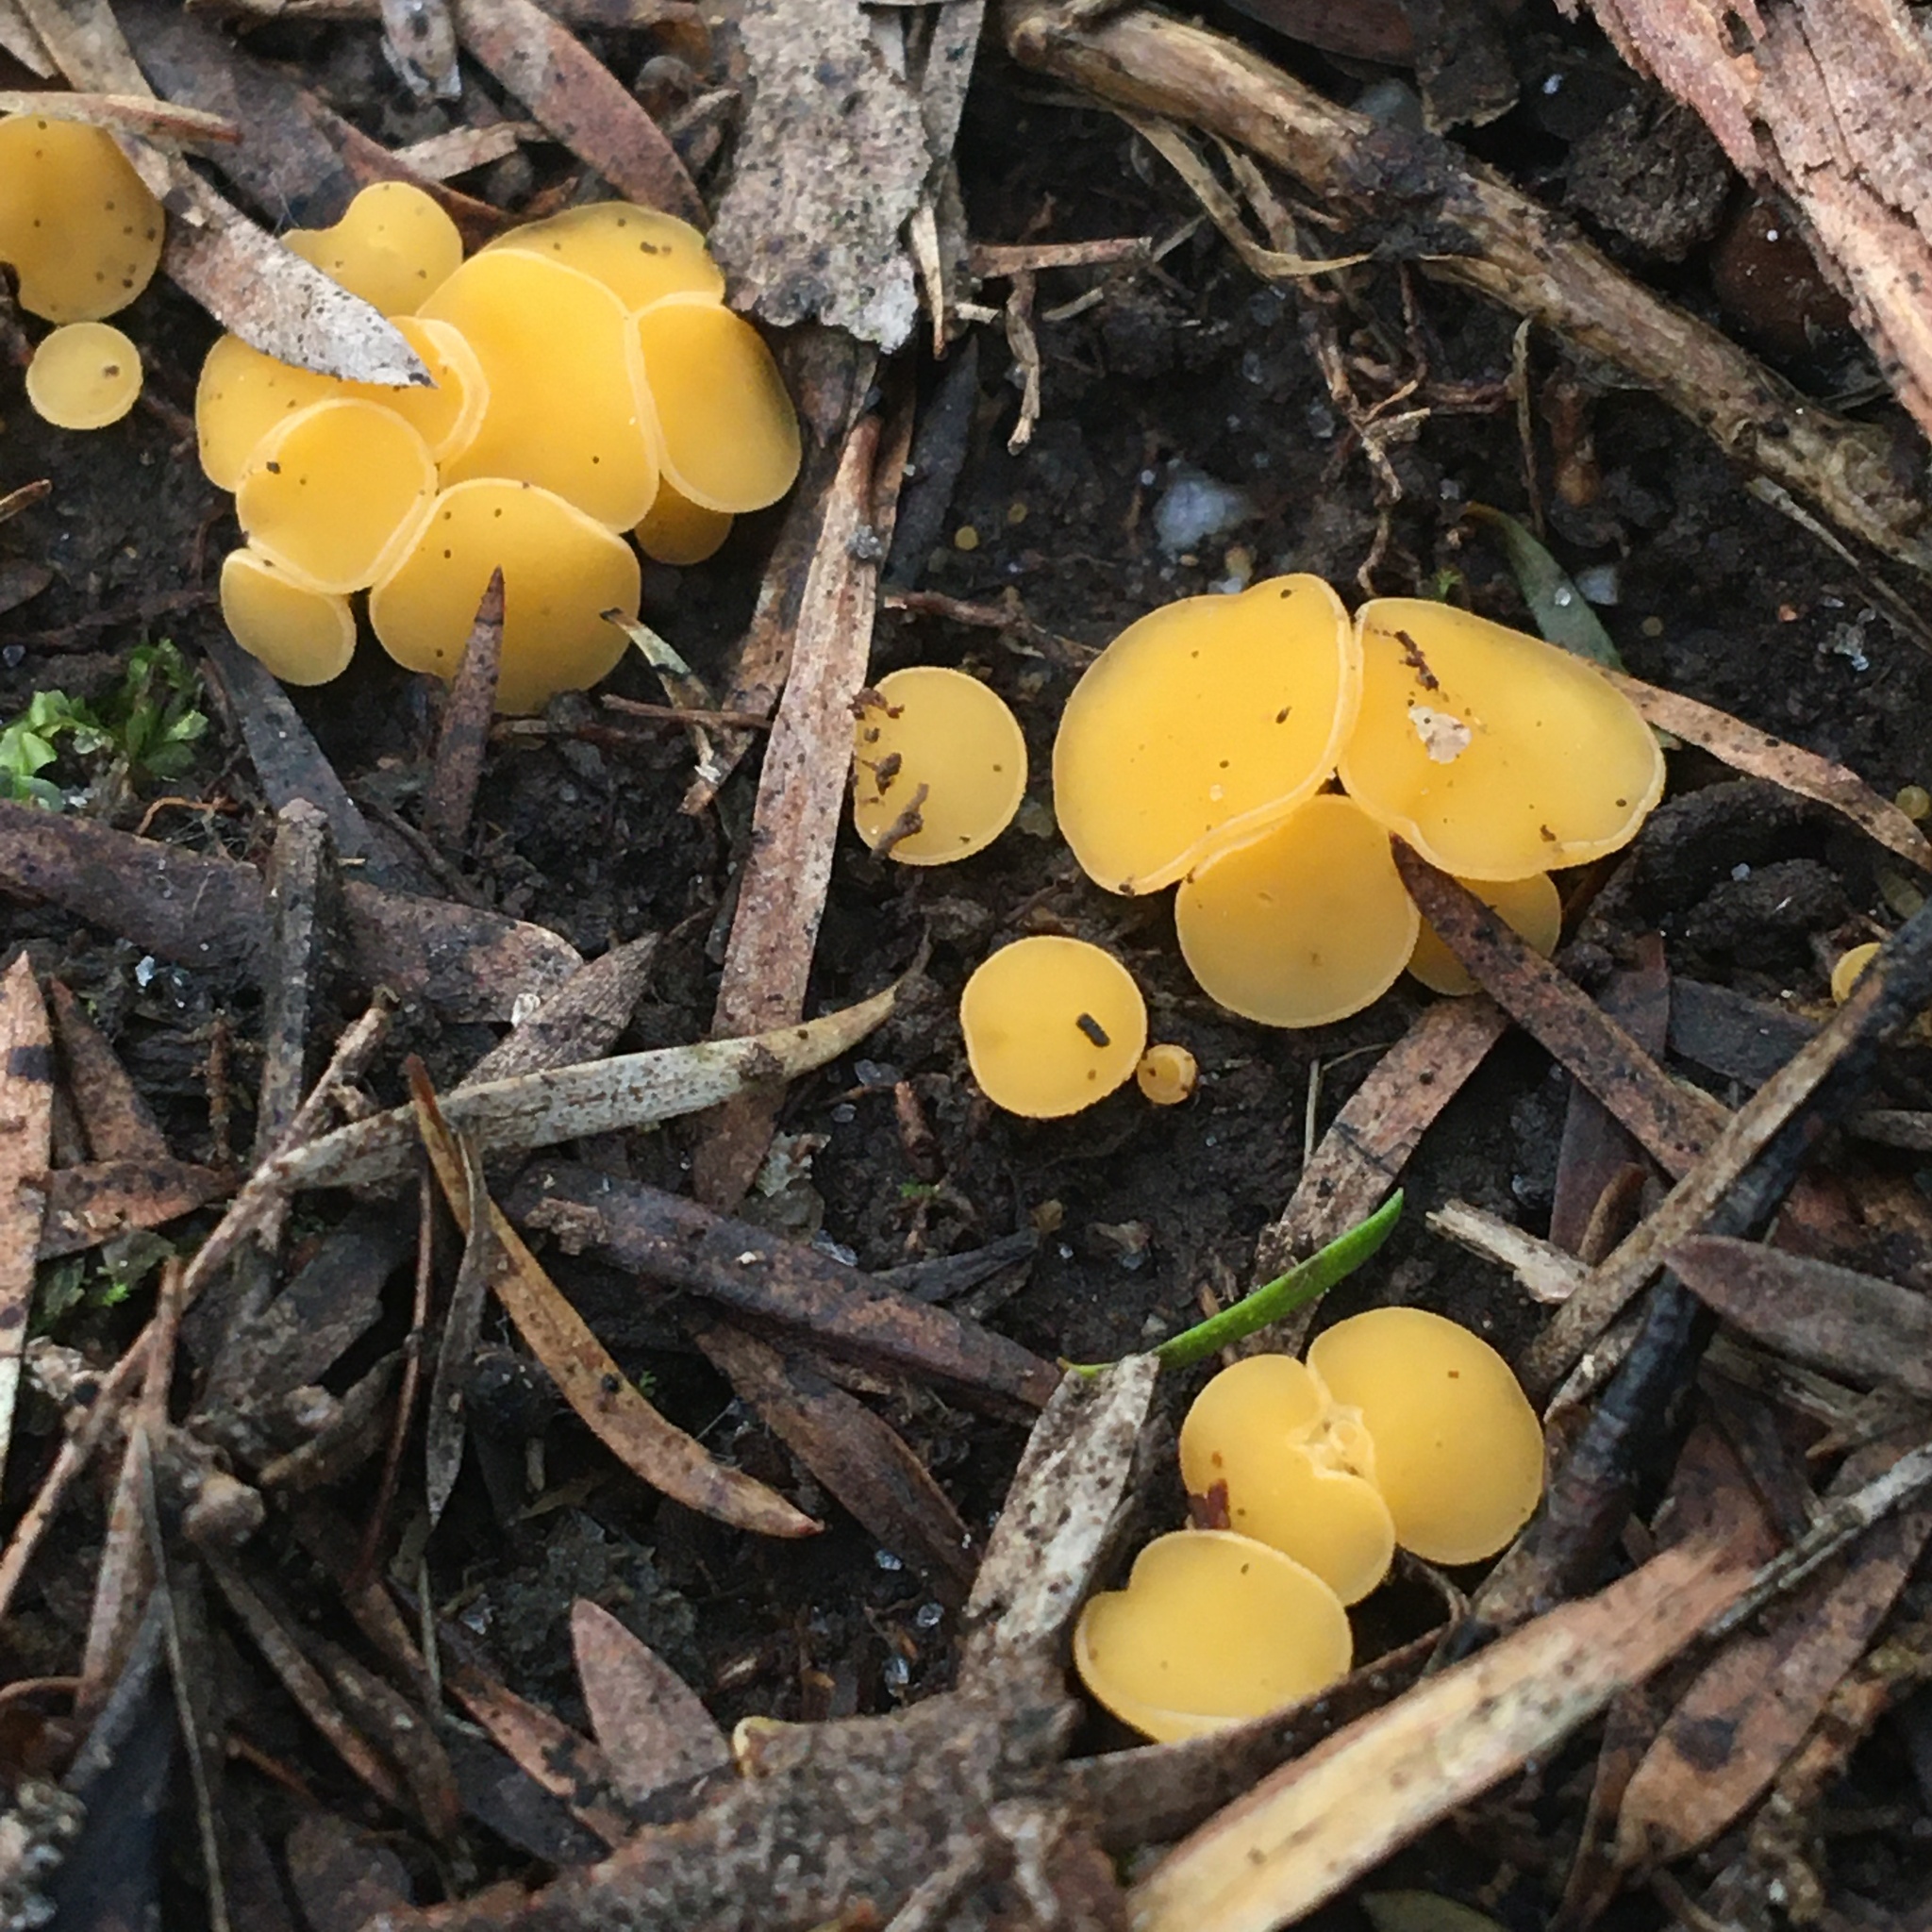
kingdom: Fungi
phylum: Ascomycota
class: Leotiomycetes
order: Helotiales
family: Helotiaceae
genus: Phaeohelotium
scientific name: Phaeohelotium baileyanum
